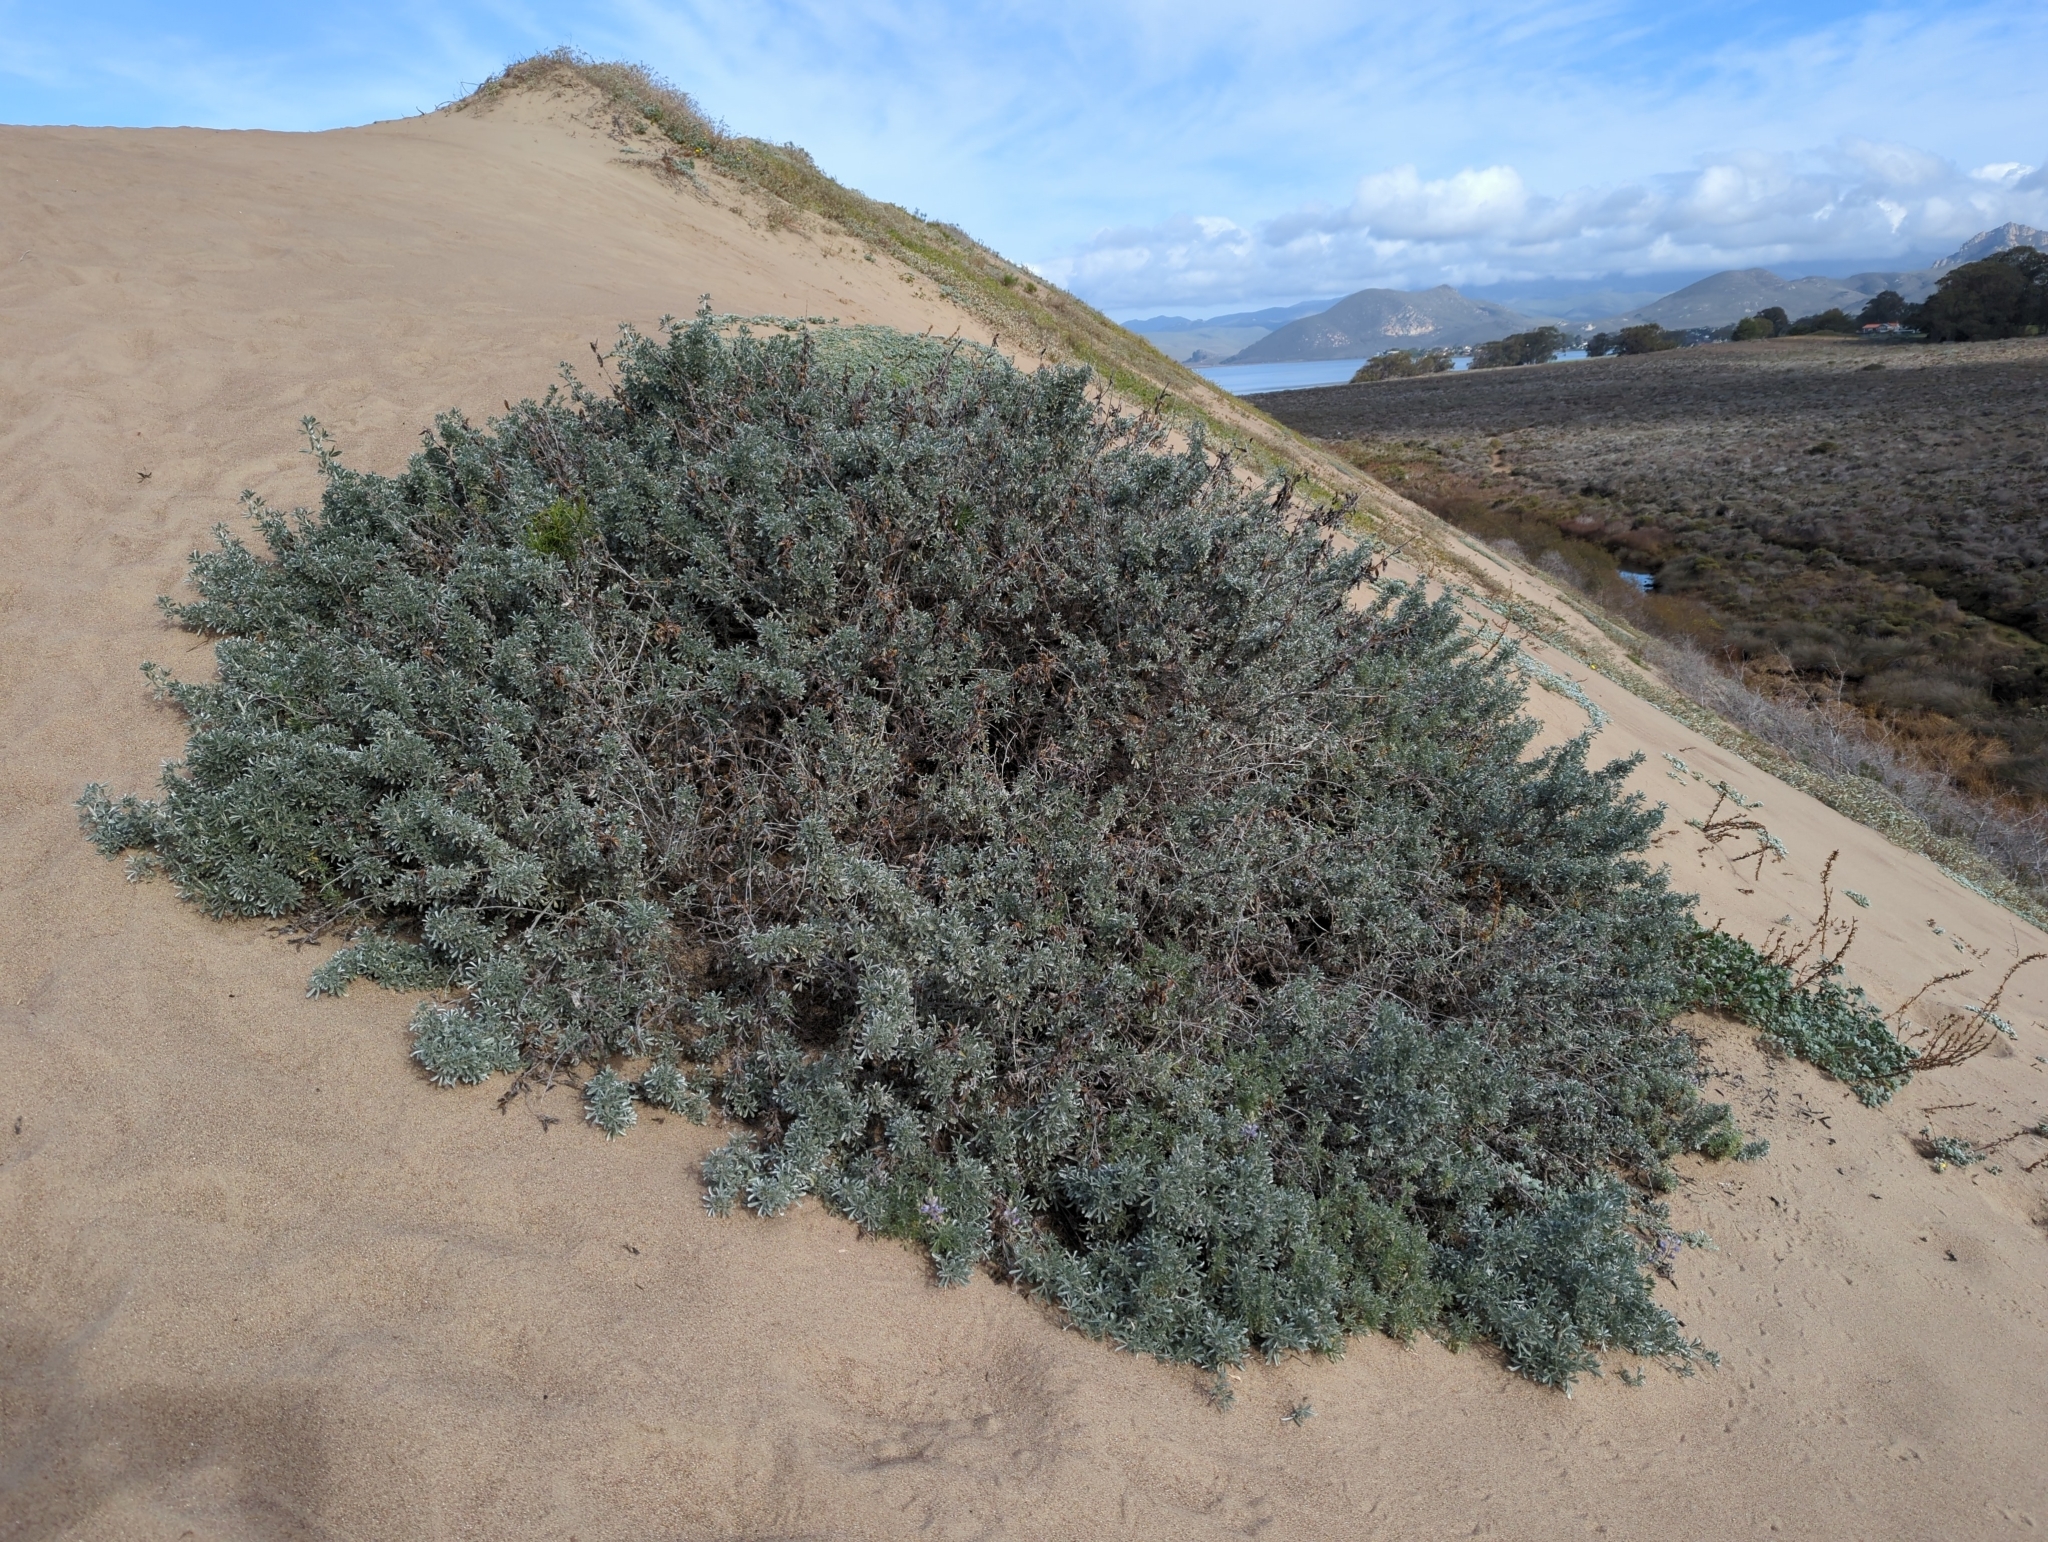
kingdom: Plantae
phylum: Tracheophyta
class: Magnoliopsida
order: Fabales
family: Fabaceae
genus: Lupinus
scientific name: Lupinus chamissonis
